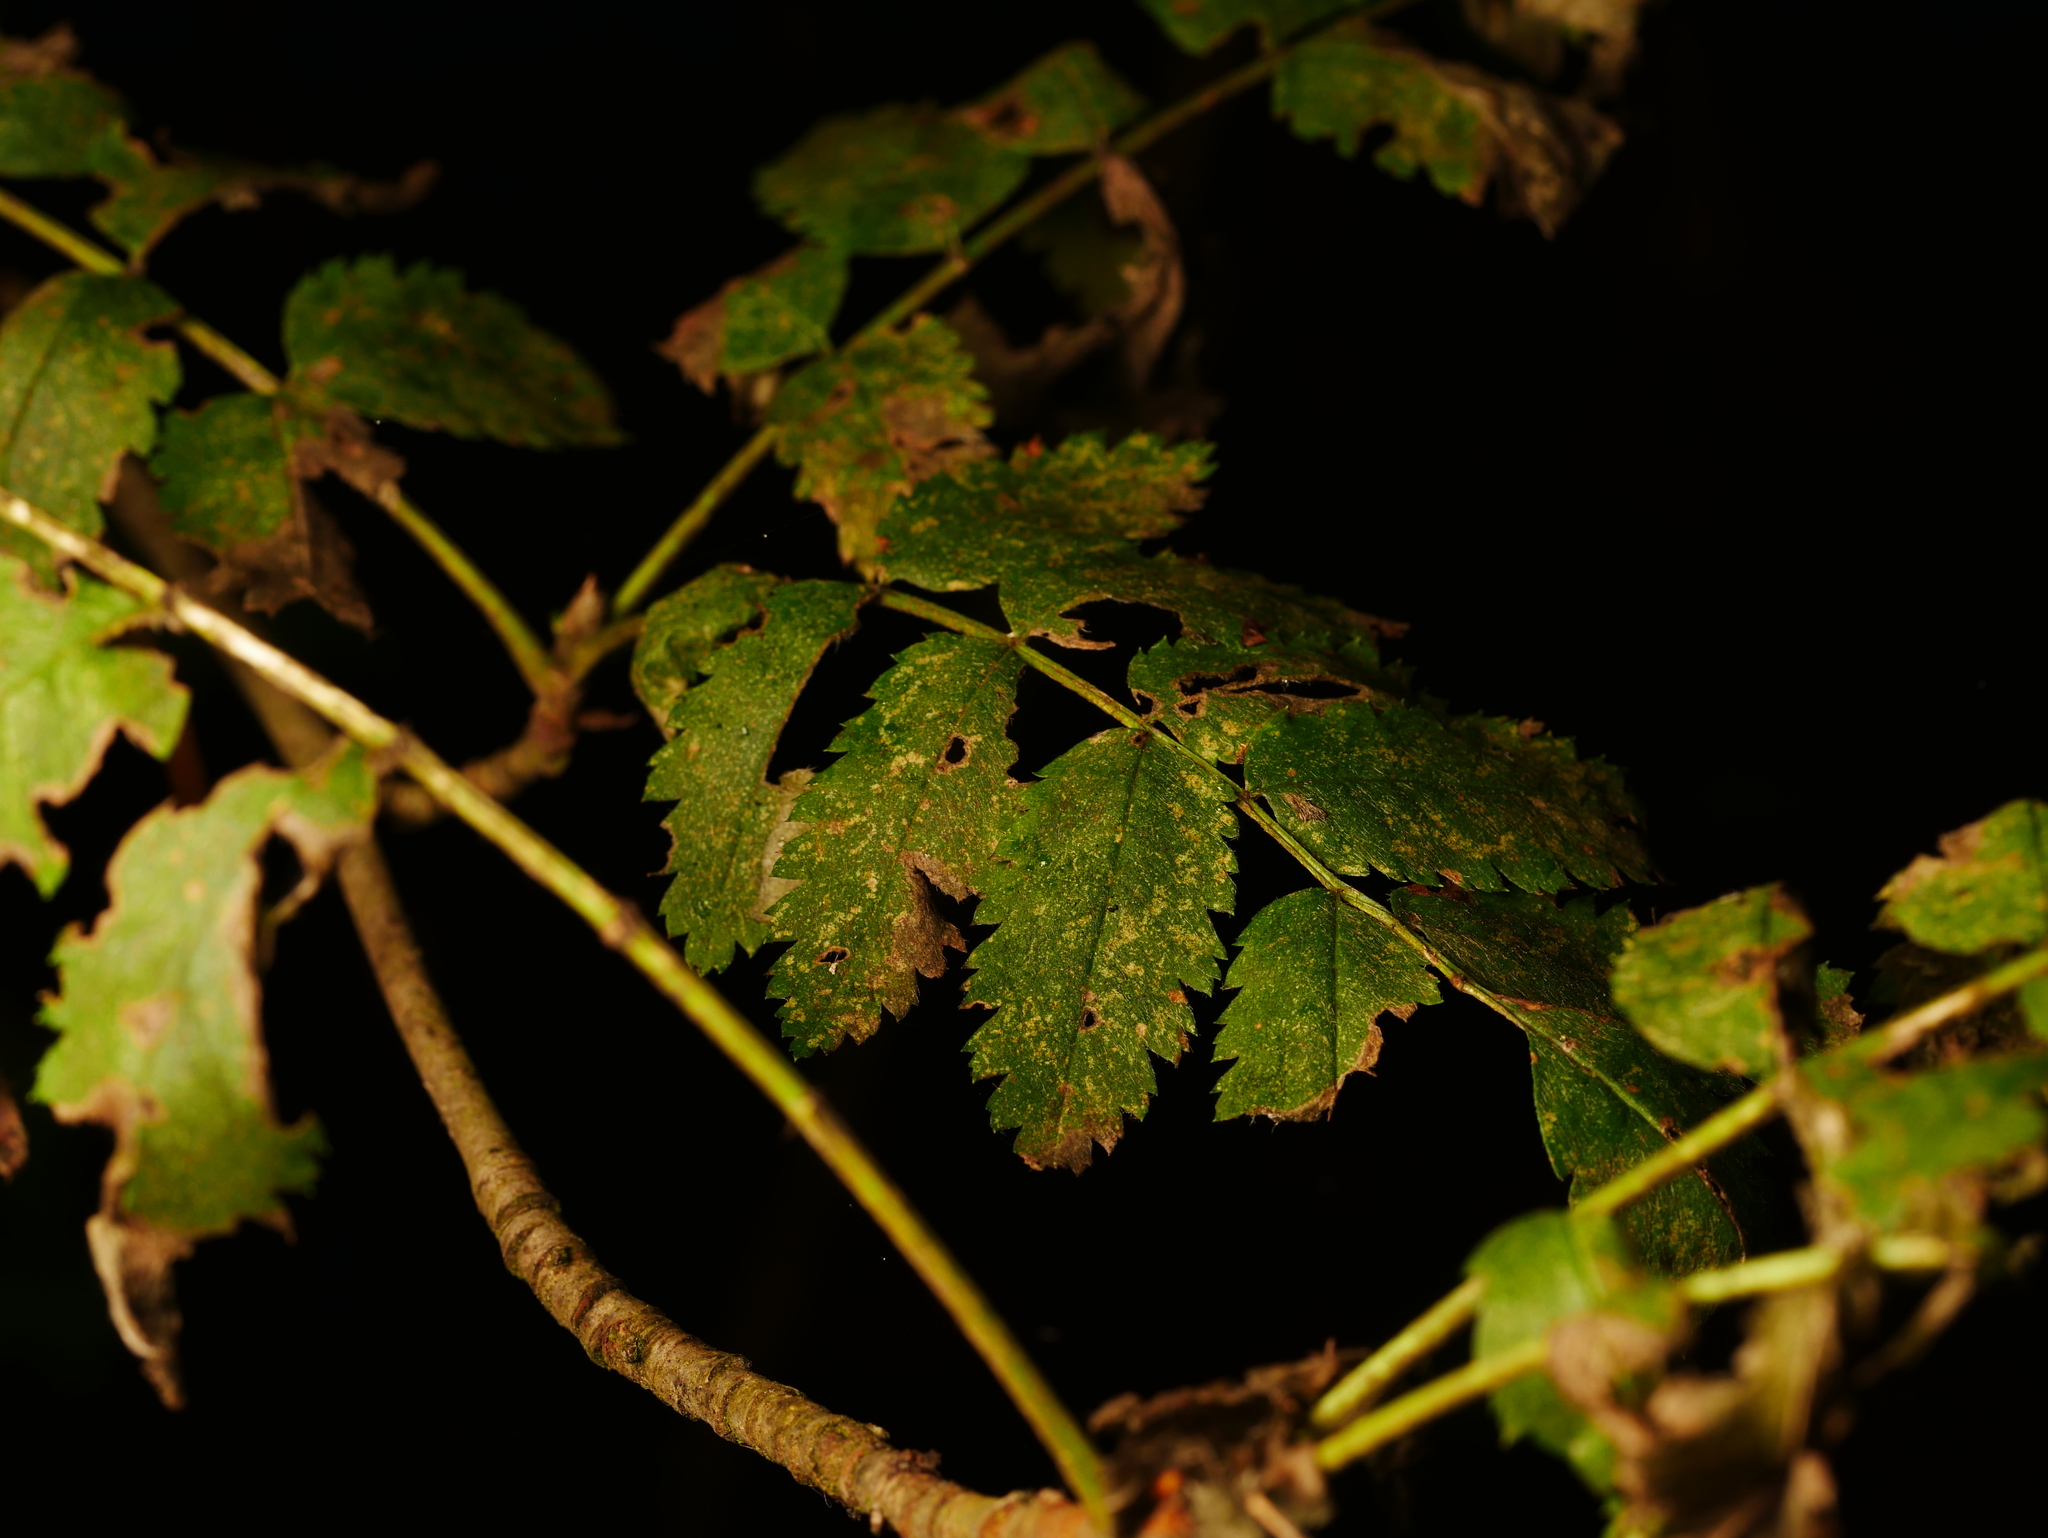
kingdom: Plantae
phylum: Tracheophyta
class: Magnoliopsida
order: Rosales
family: Rosaceae
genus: Sorbus
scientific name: Sorbus aucuparia
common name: Rowan
